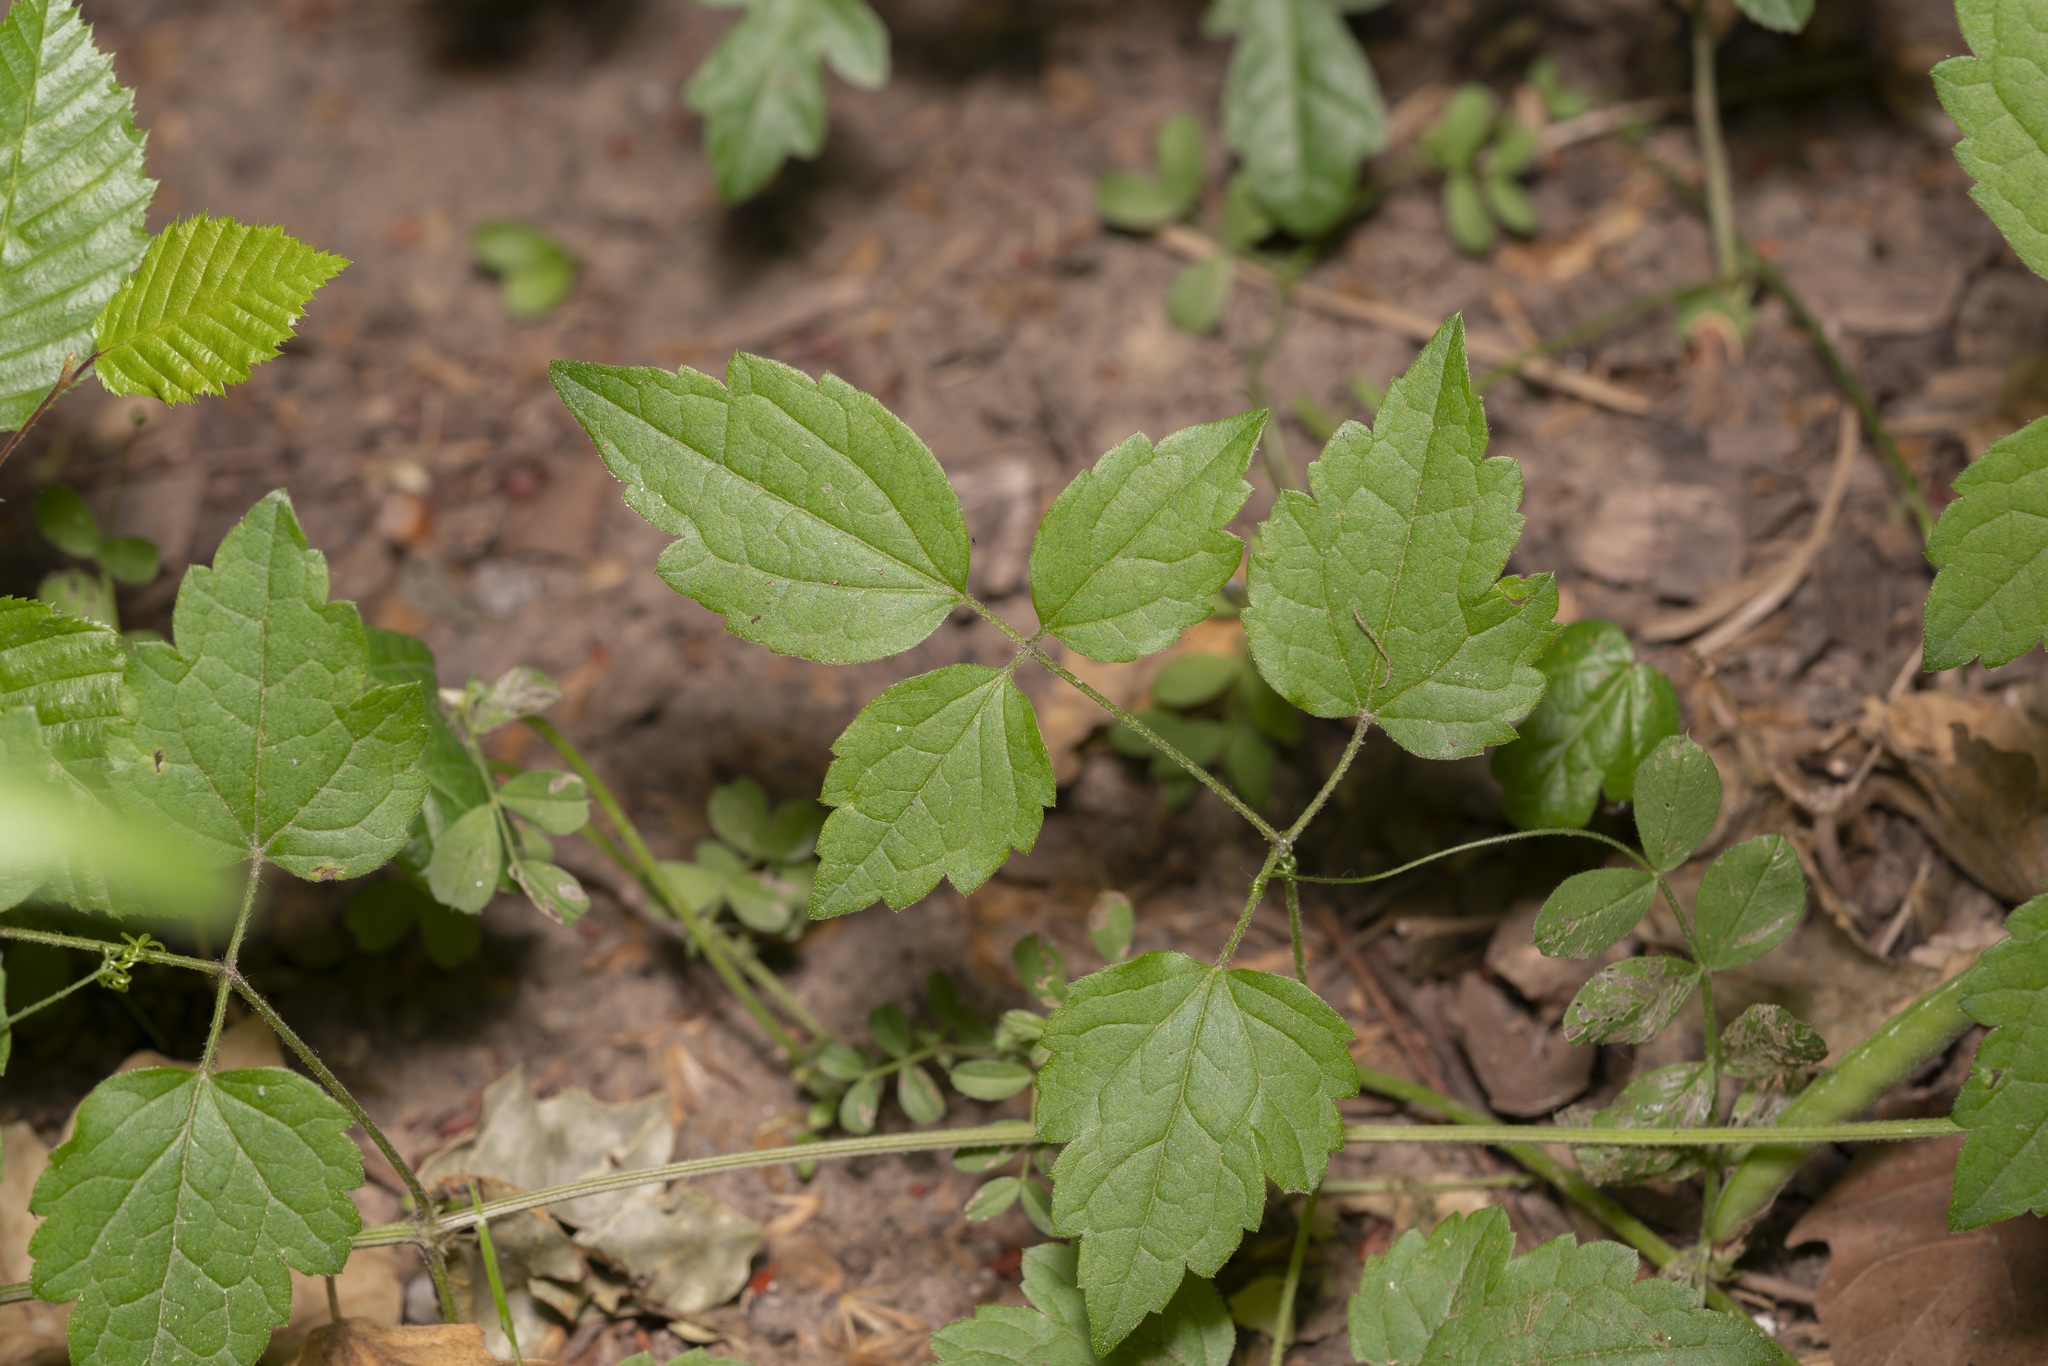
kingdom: Plantae
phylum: Tracheophyta
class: Magnoliopsida
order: Ranunculales
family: Ranunculaceae
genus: Clematis
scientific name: Clematis vitalba
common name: Evergreen clematis
